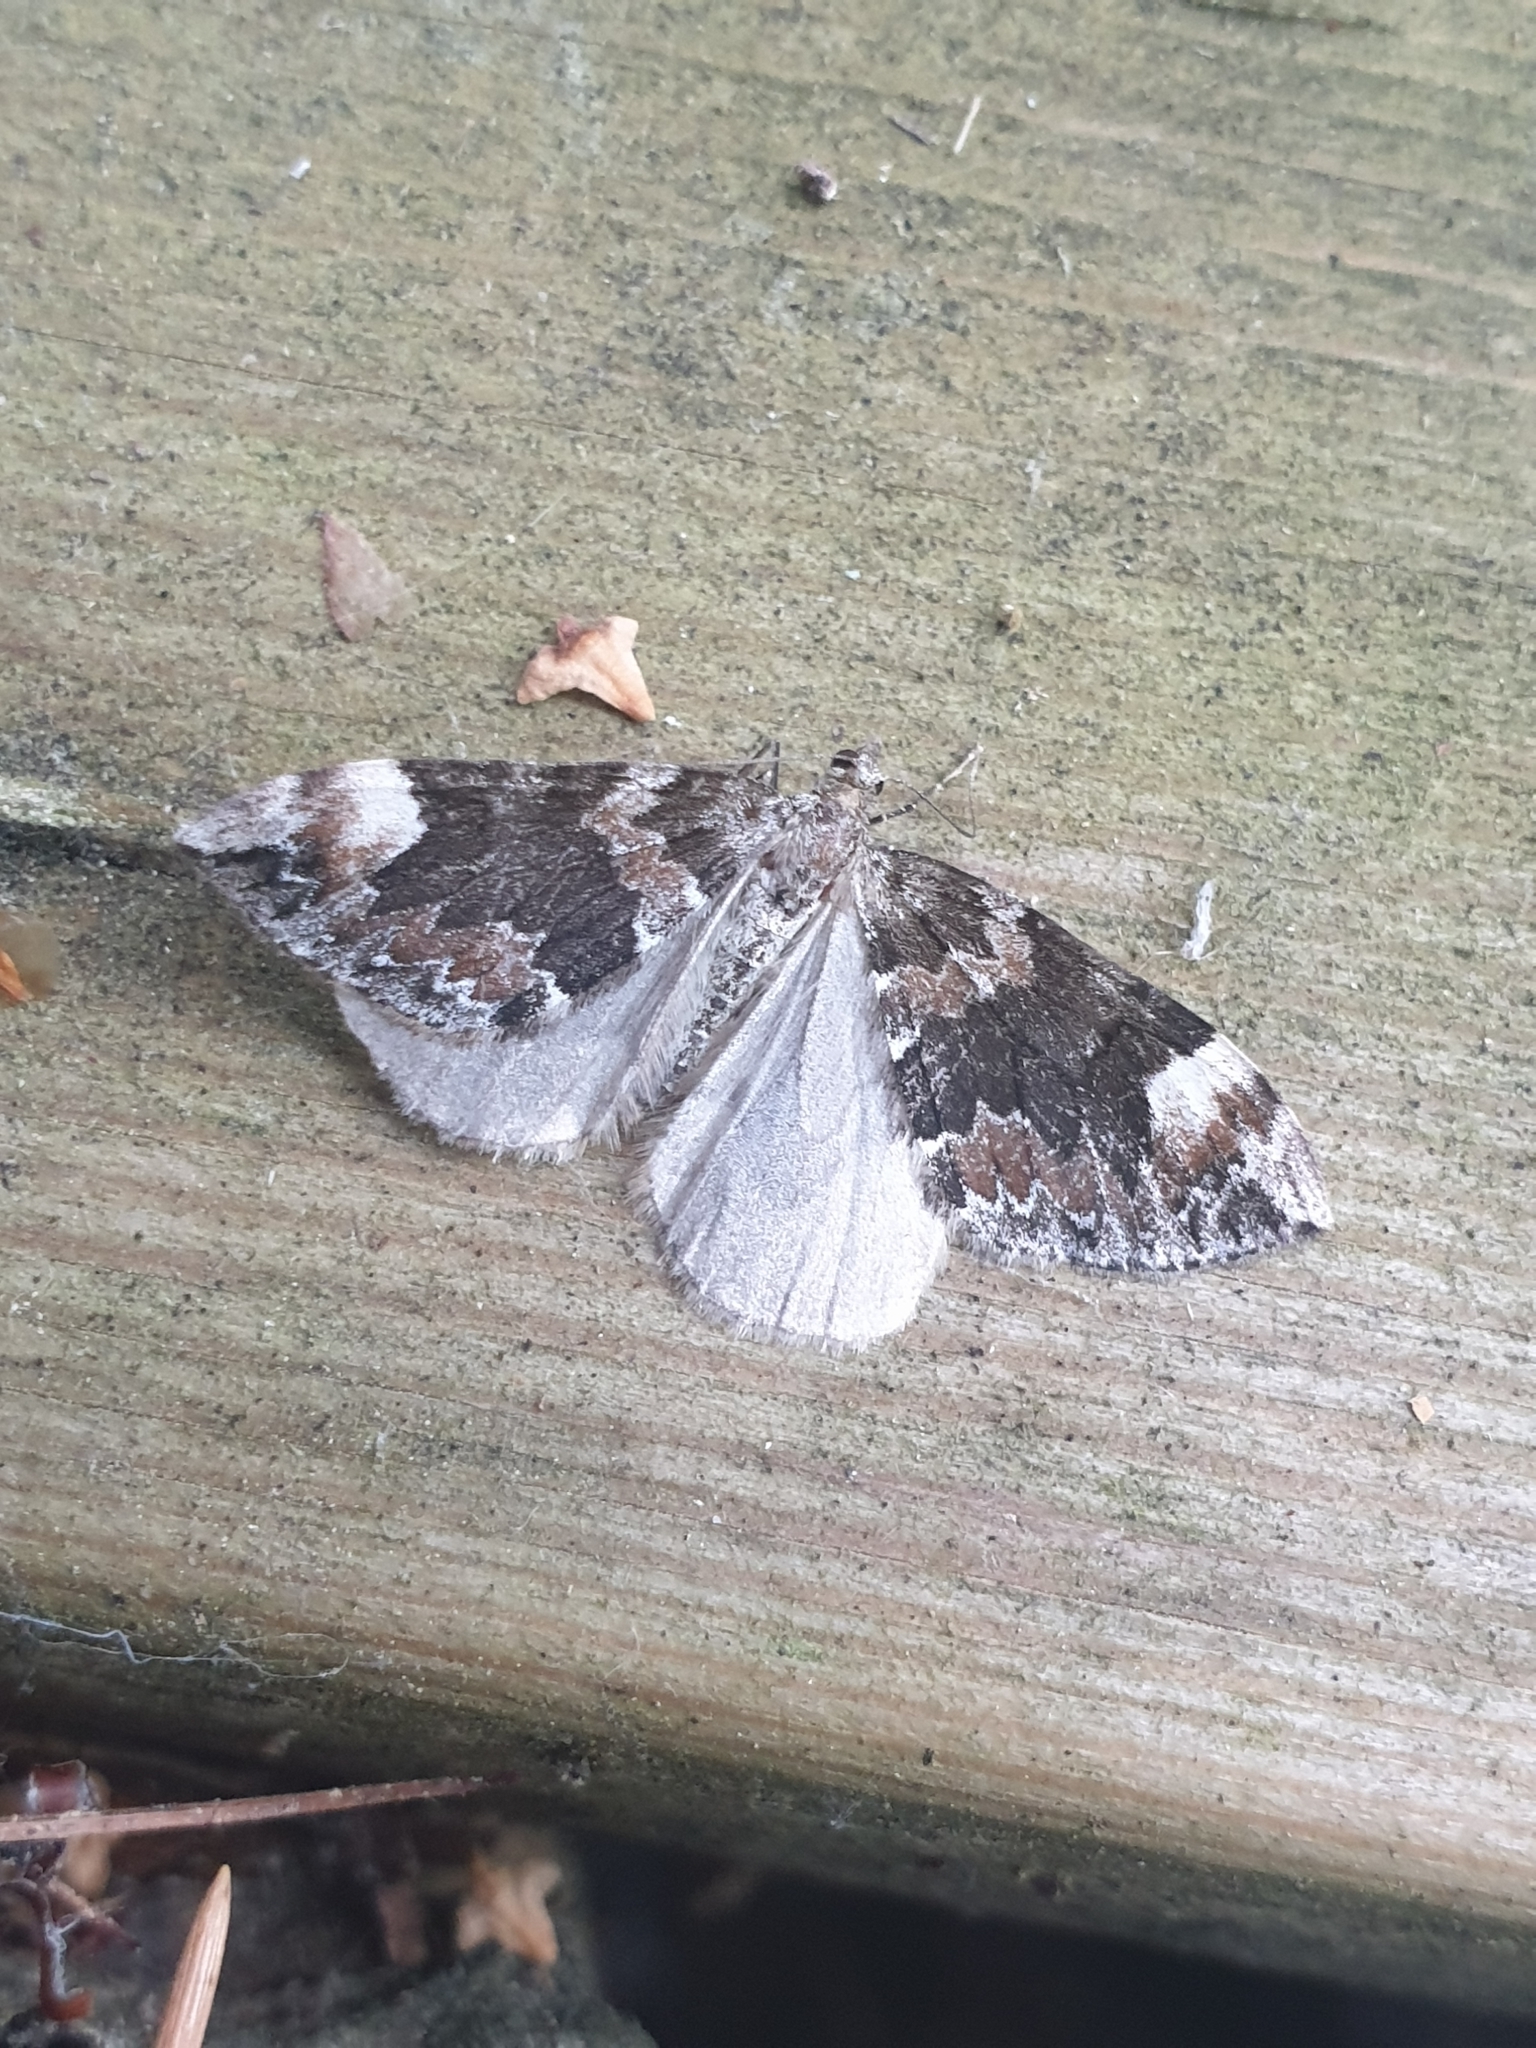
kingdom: Animalia
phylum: Arthropoda
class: Insecta
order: Lepidoptera
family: Geometridae
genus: Dysstroma
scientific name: Dysstroma citrata
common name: Dark marbled carpet
